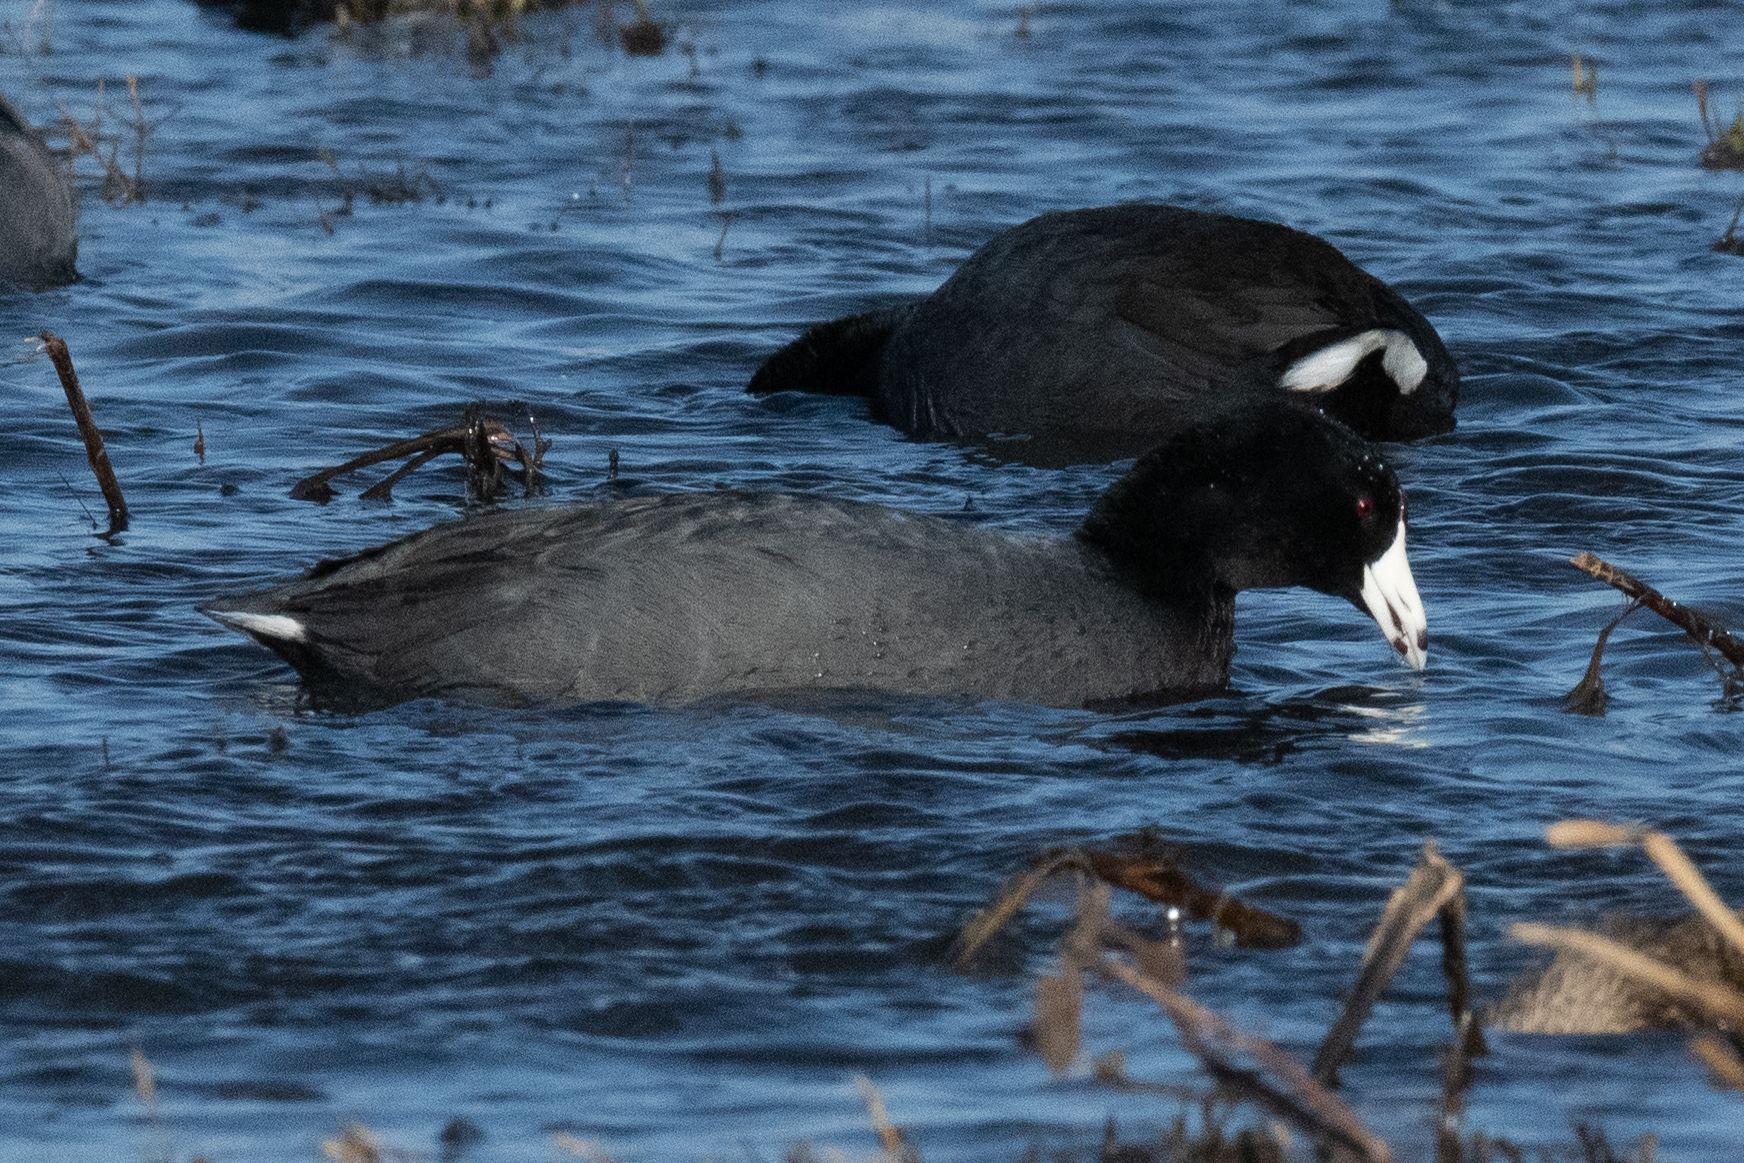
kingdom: Animalia
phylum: Chordata
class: Aves
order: Gruiformes
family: Rallidae
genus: Fulica
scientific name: Fulica americana
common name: American coot
